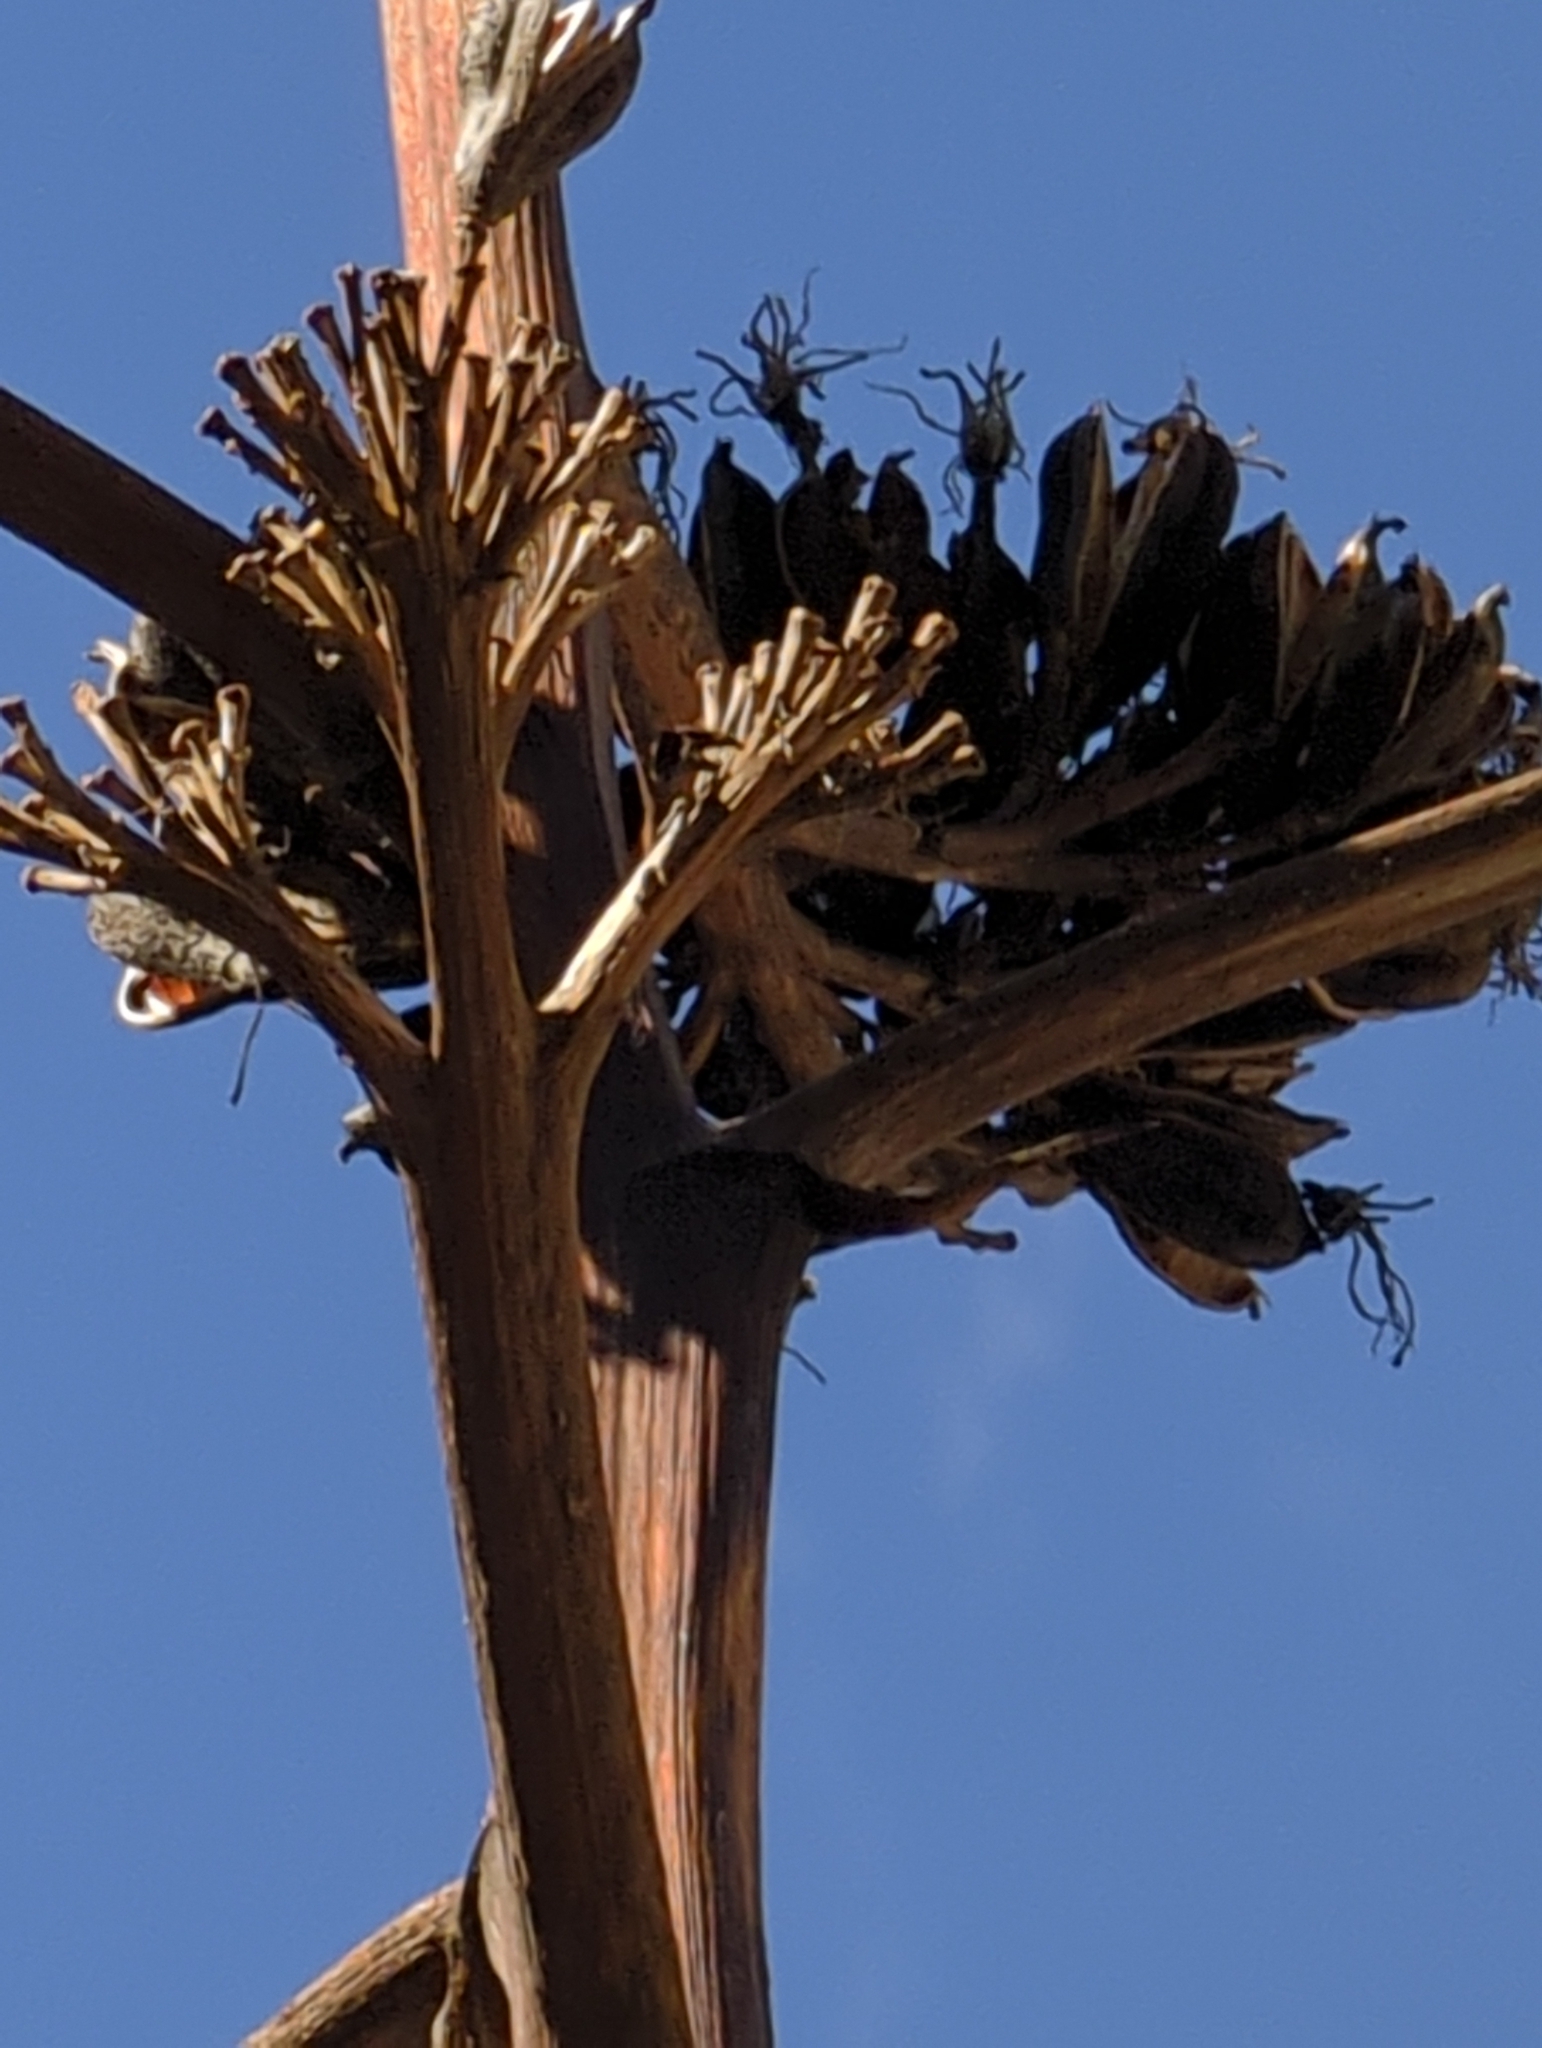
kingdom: Plantae
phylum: Tracheophyta
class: Liliopsida
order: Asparagales
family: Asparagaceae
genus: Agave
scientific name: Agave parryi
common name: Parry's agave
